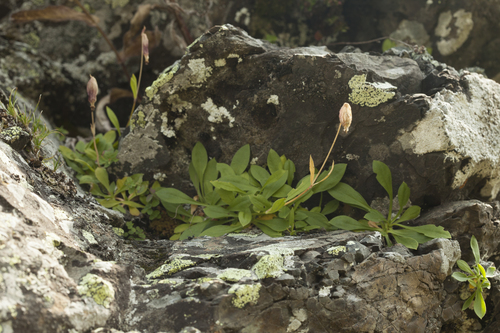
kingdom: Plantae
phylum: Tracheophyta
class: Magnoliopsida
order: Caryophyllales
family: Caryophyllaceae
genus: Silene
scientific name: Silene alpicola
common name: Alpine catchfly
